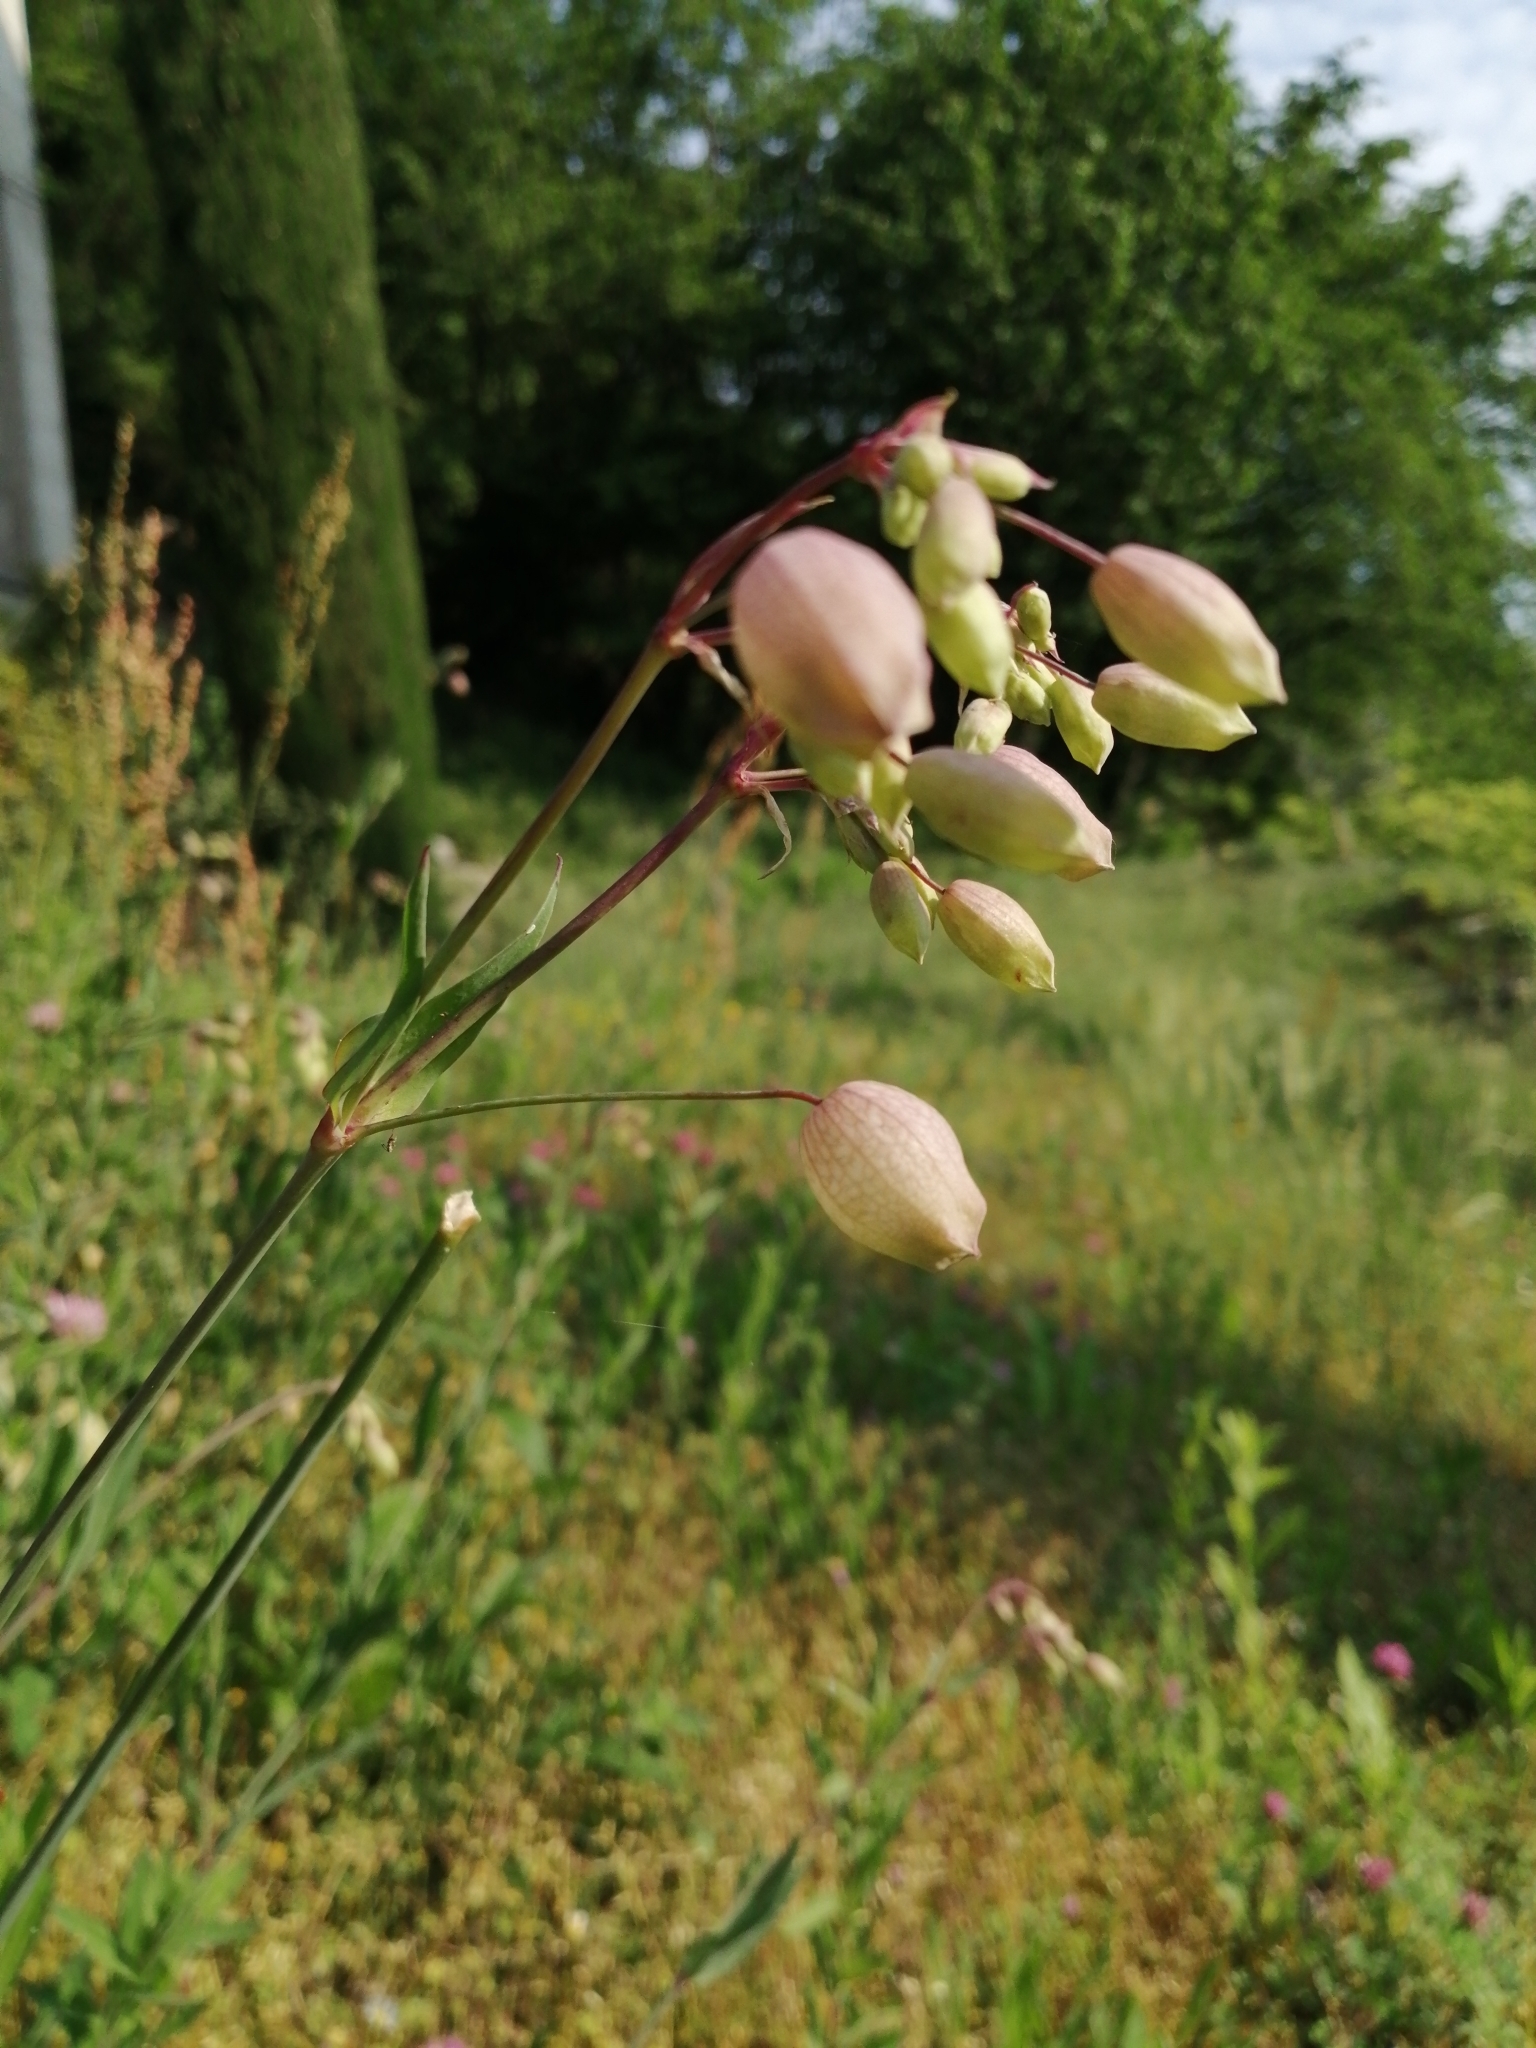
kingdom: Plantae
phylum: Tracheophyta
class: Magnoliopsida
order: Caryophyllales
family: Caryophyllaceae
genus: Silene
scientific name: Silene vulgaris
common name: Bladder campion
